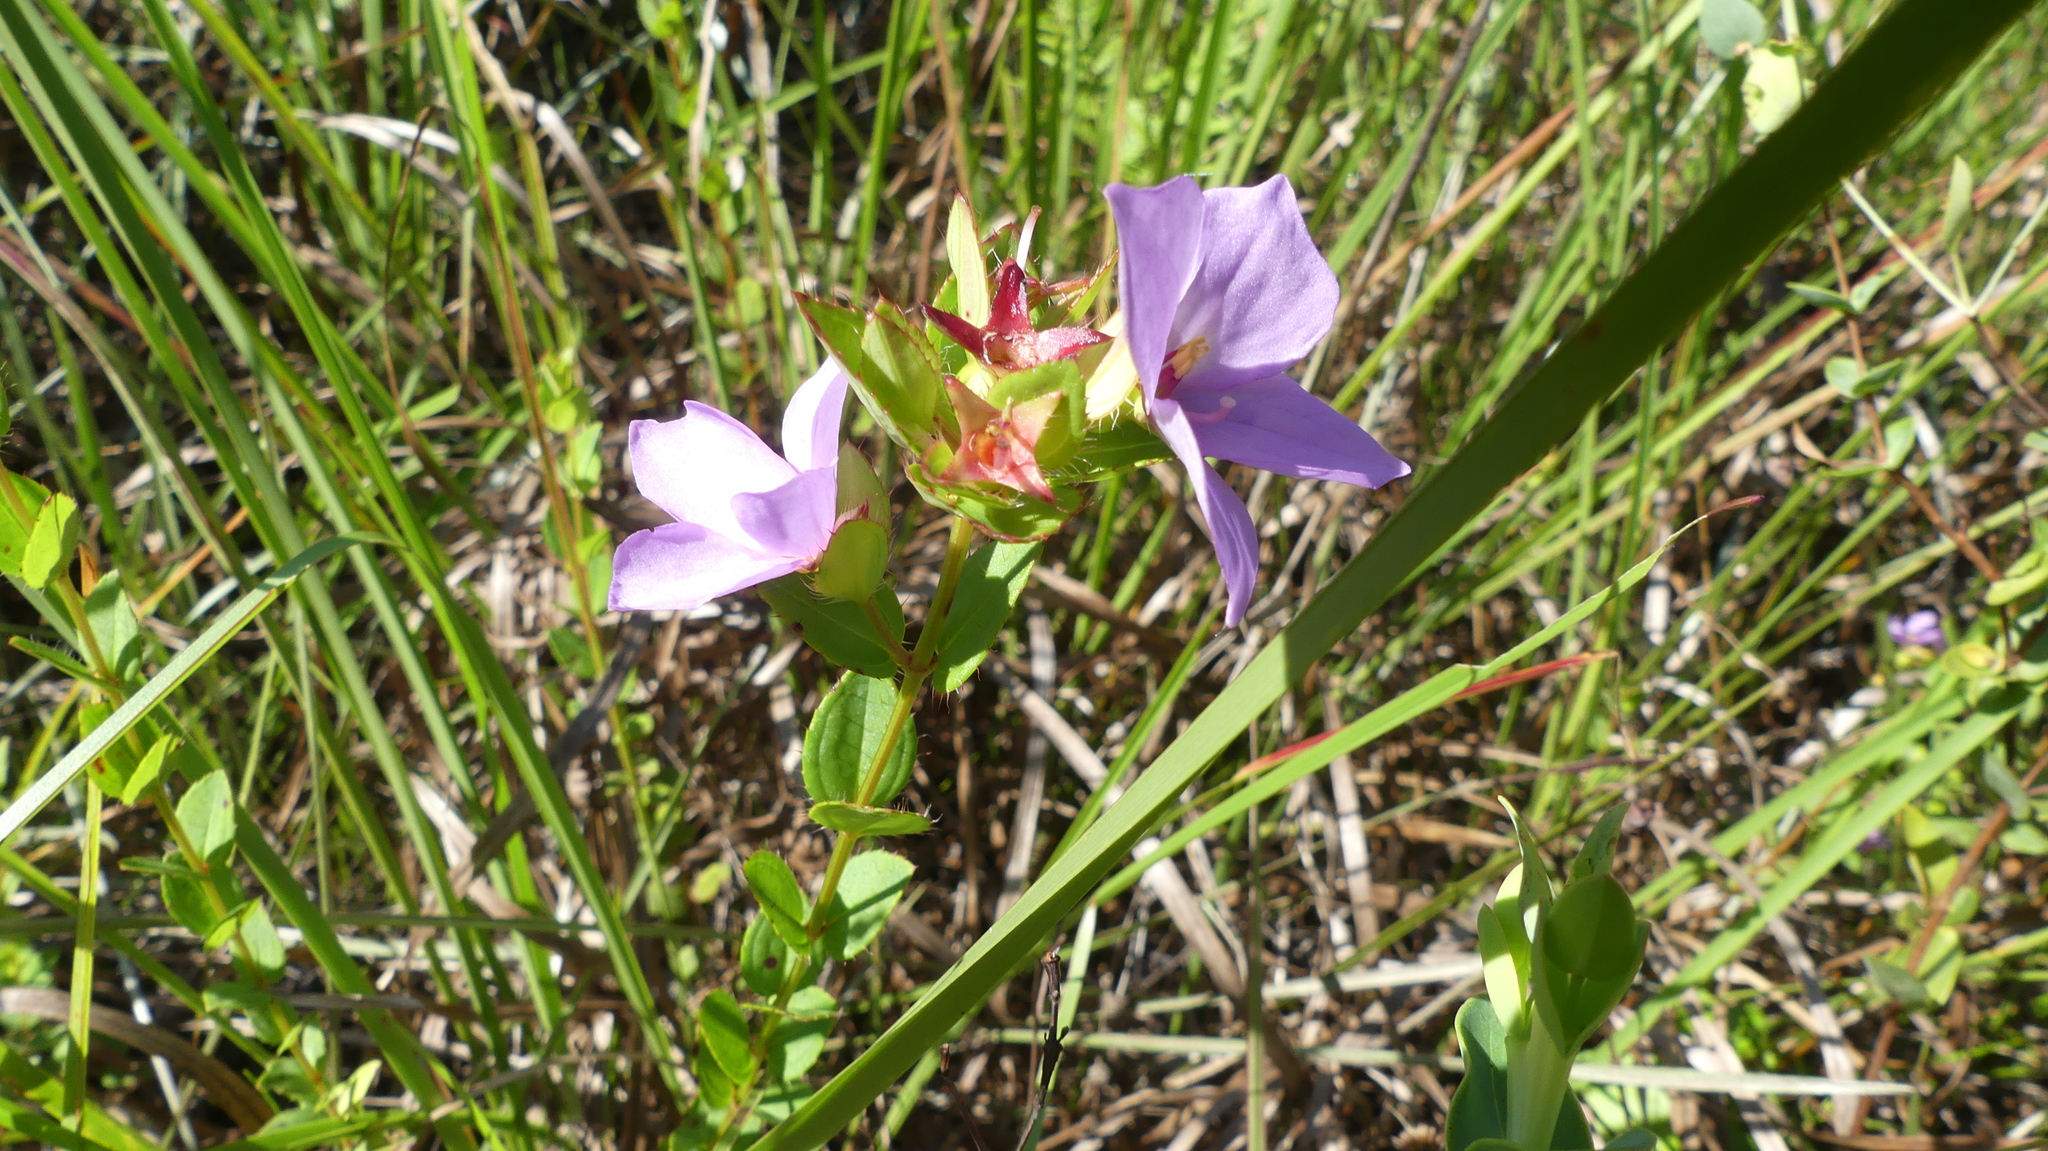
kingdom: Plantae
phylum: Tracheophyta
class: Magnoliopsida
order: Myrtales
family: Melastomataceae
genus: Rhexia
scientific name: Rhexia petiolata
